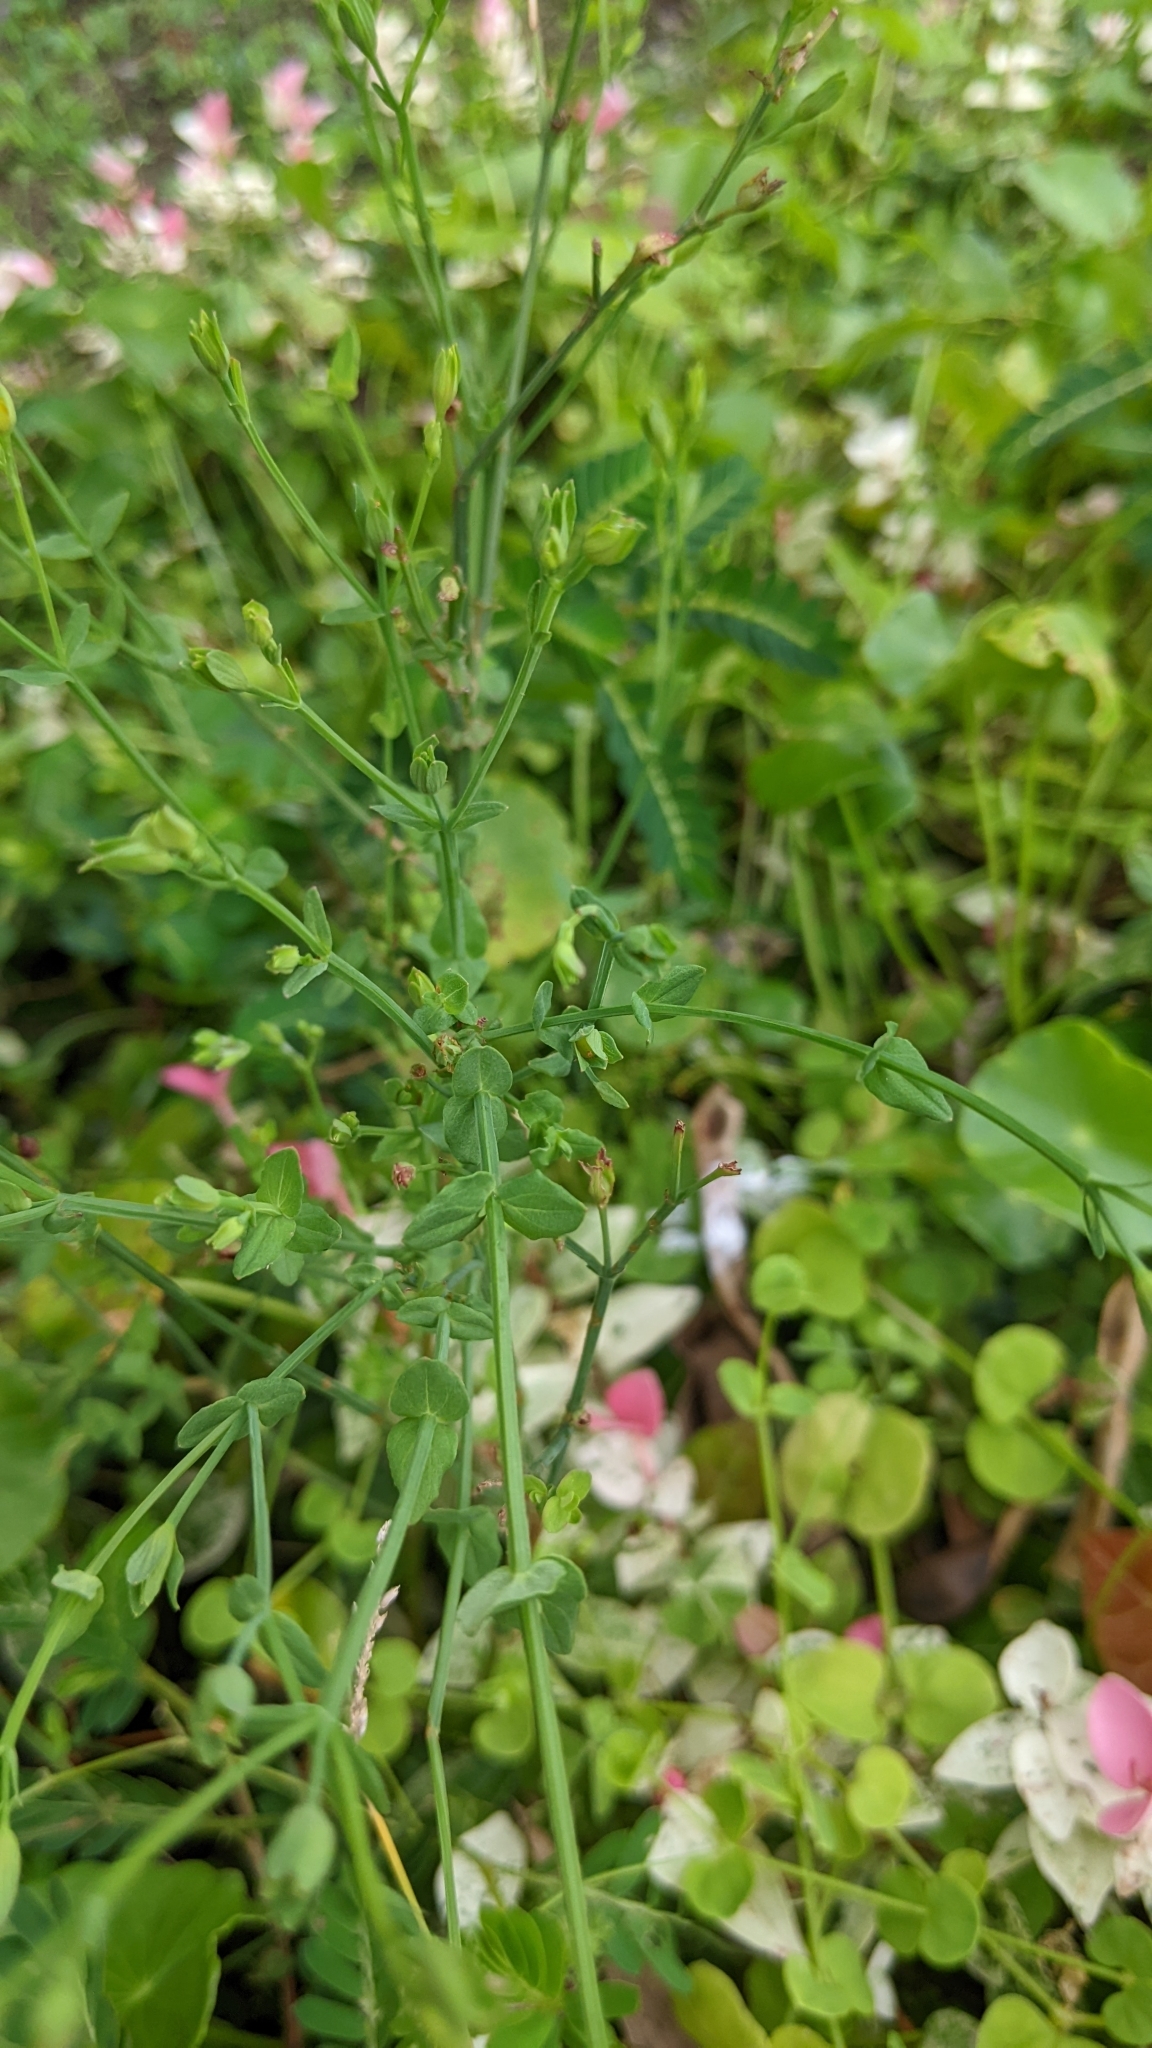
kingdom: Plantae
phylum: Tracheophyta
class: Magnoliopsida
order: Malpighiales
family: Hypericaceae
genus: Hypericum
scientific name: Hypericum japonicum
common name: Matted st. john's-wort
